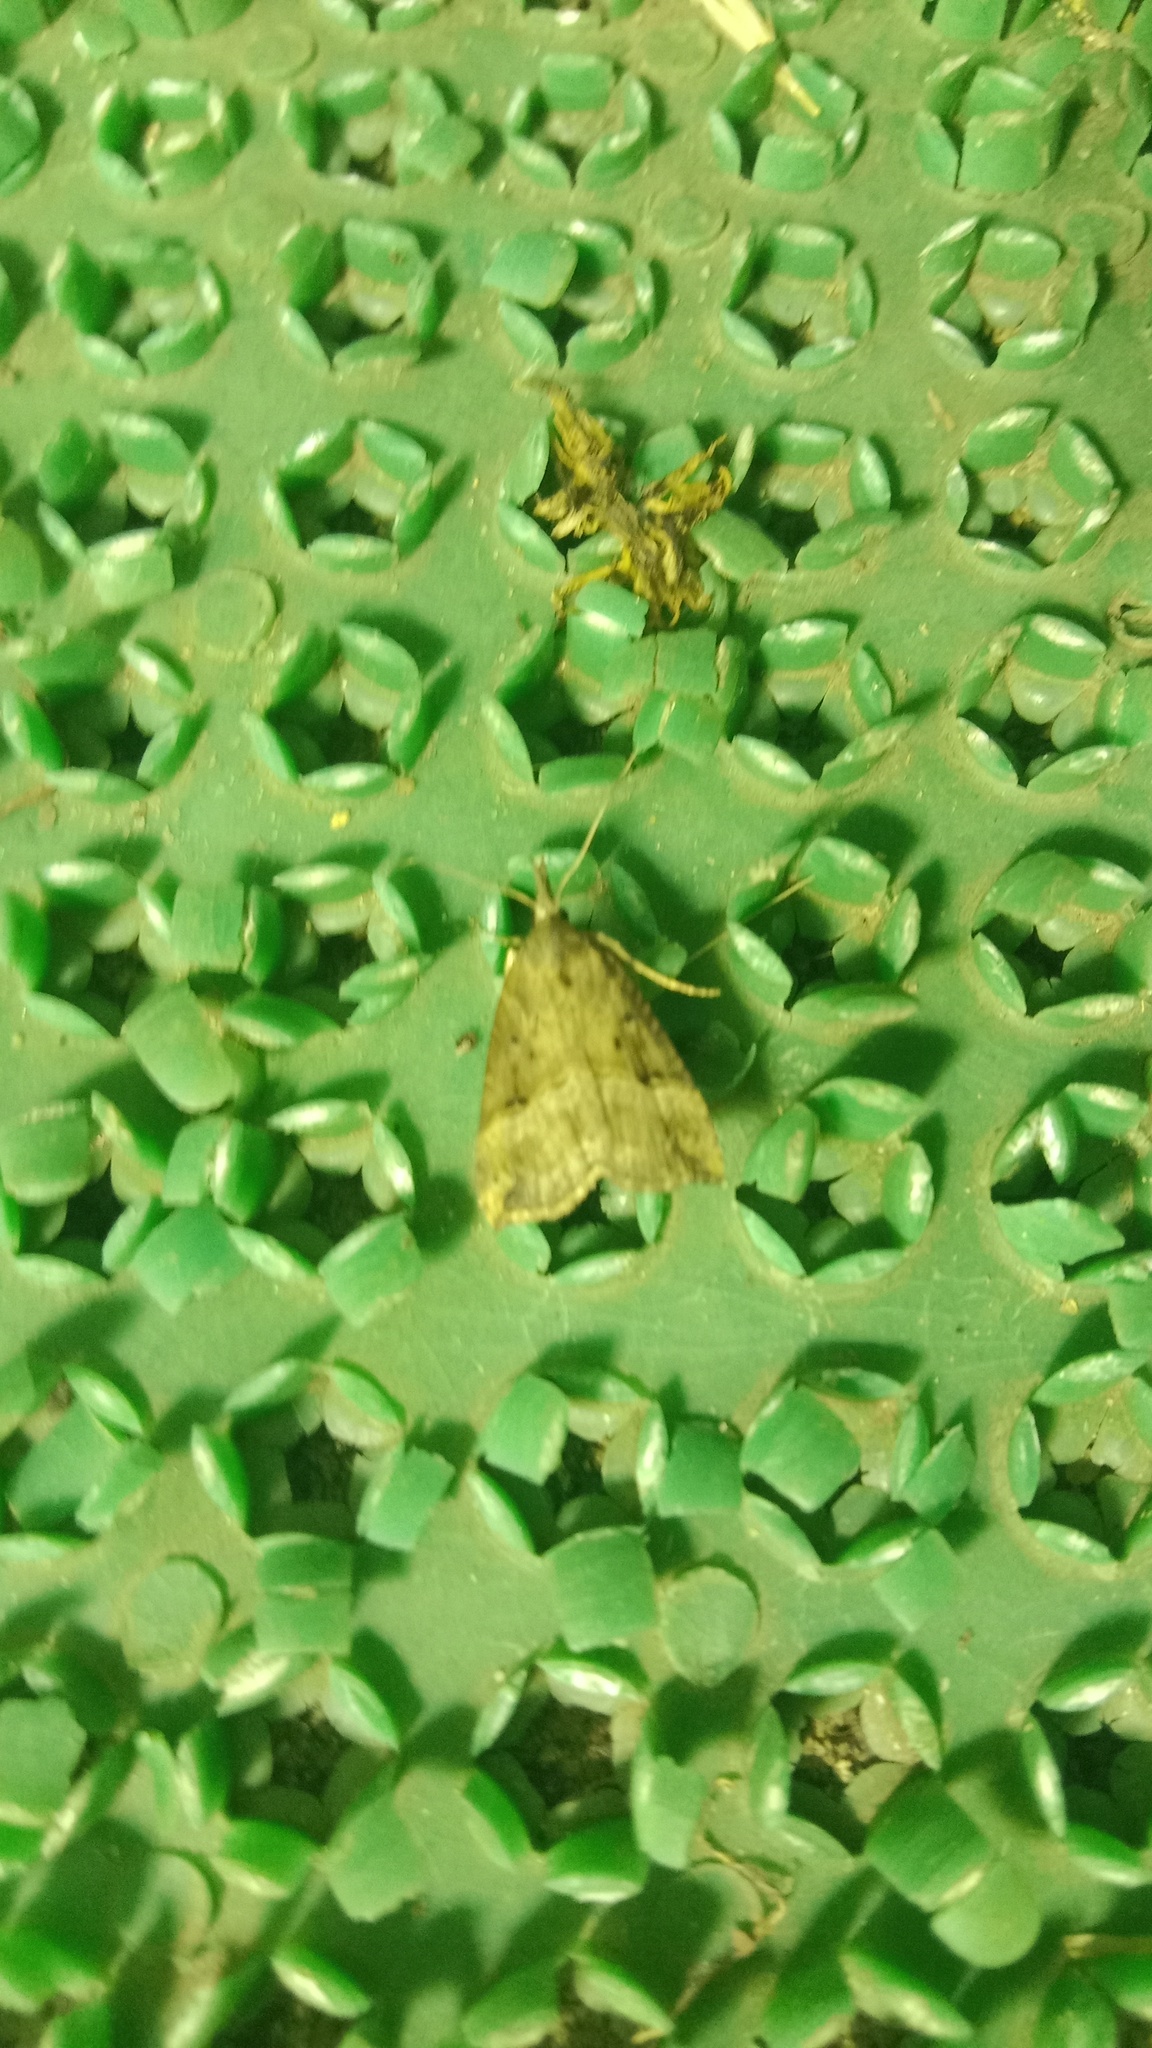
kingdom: Animalia
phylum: Arthropoda
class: Insecta
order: Lepidoptera
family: Erebidae
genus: Hypena
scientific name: Hypena rostralis
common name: Buttoned snout
